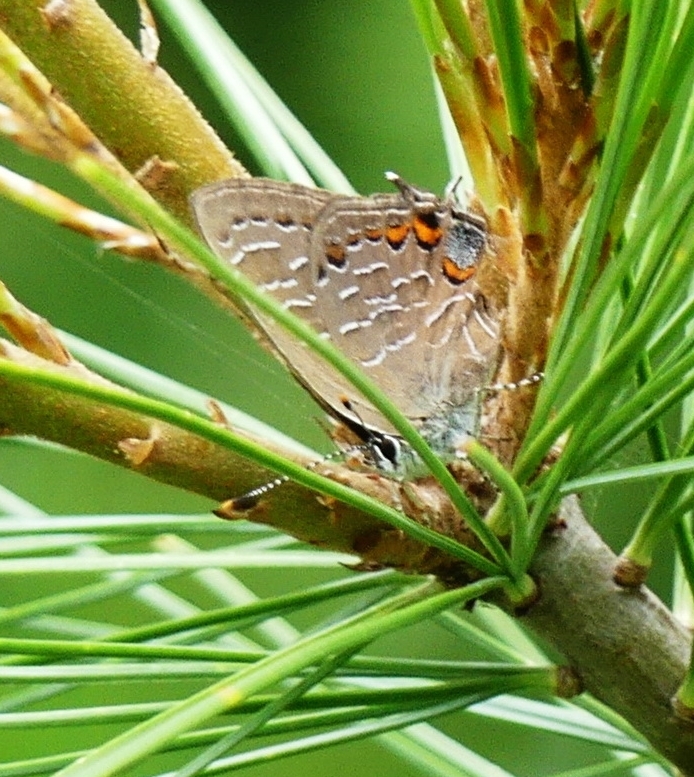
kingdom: Animalia
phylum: Arthropoda
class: Insecta
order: Lepidoptera
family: Lycaenidae
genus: Satyrium
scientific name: Satyrium liparops
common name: Striped hairstreak
